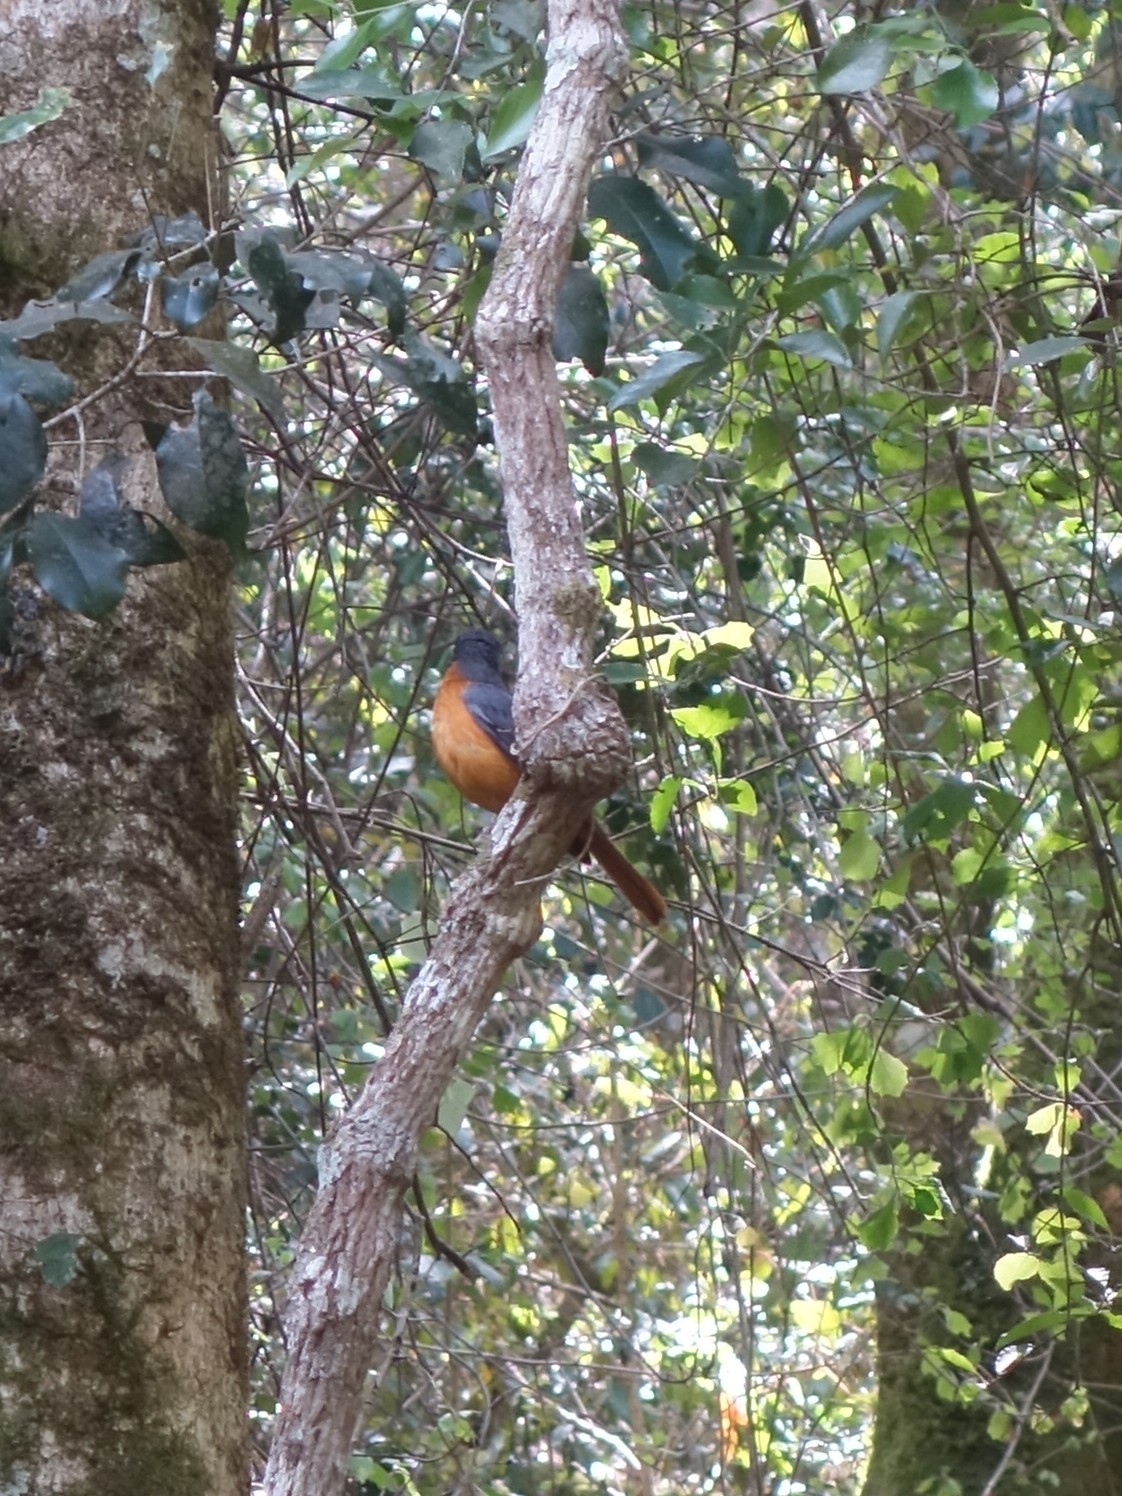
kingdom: Animalia
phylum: Chordata
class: Aves
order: Passeriformes
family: Muscicapidae
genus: Cossypha
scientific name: Cossypha dichroa
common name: Chorister robin-chat
